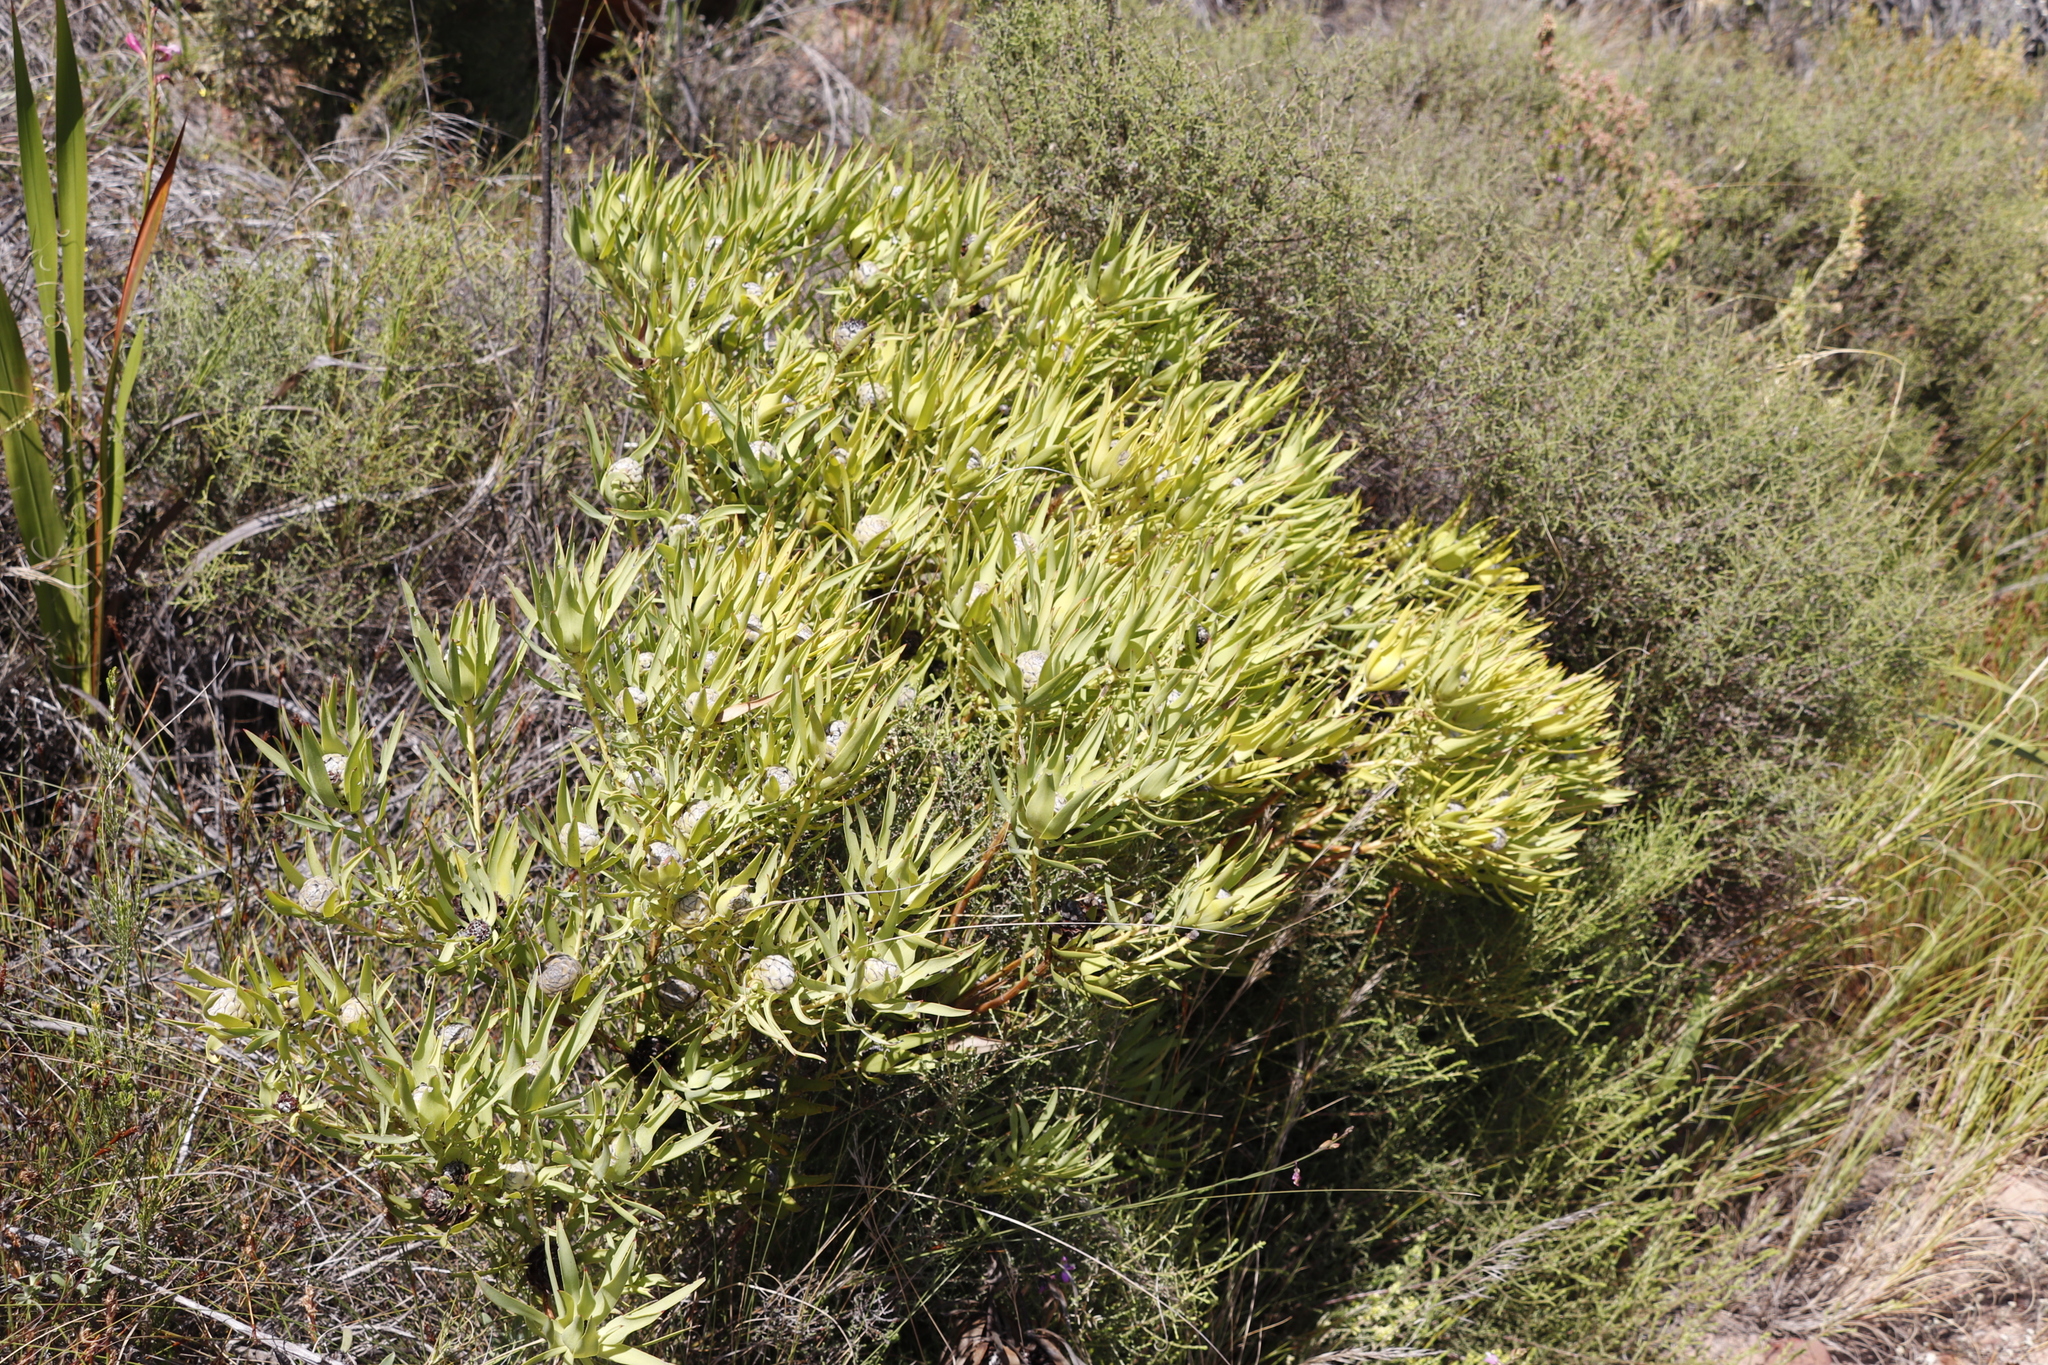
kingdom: Plantae
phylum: Tracheophyta
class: Magnoliopsida
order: Proteales
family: Proteaceae
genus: Leucadendron
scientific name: Leucadendron salignum
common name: Common sunshine conebush
